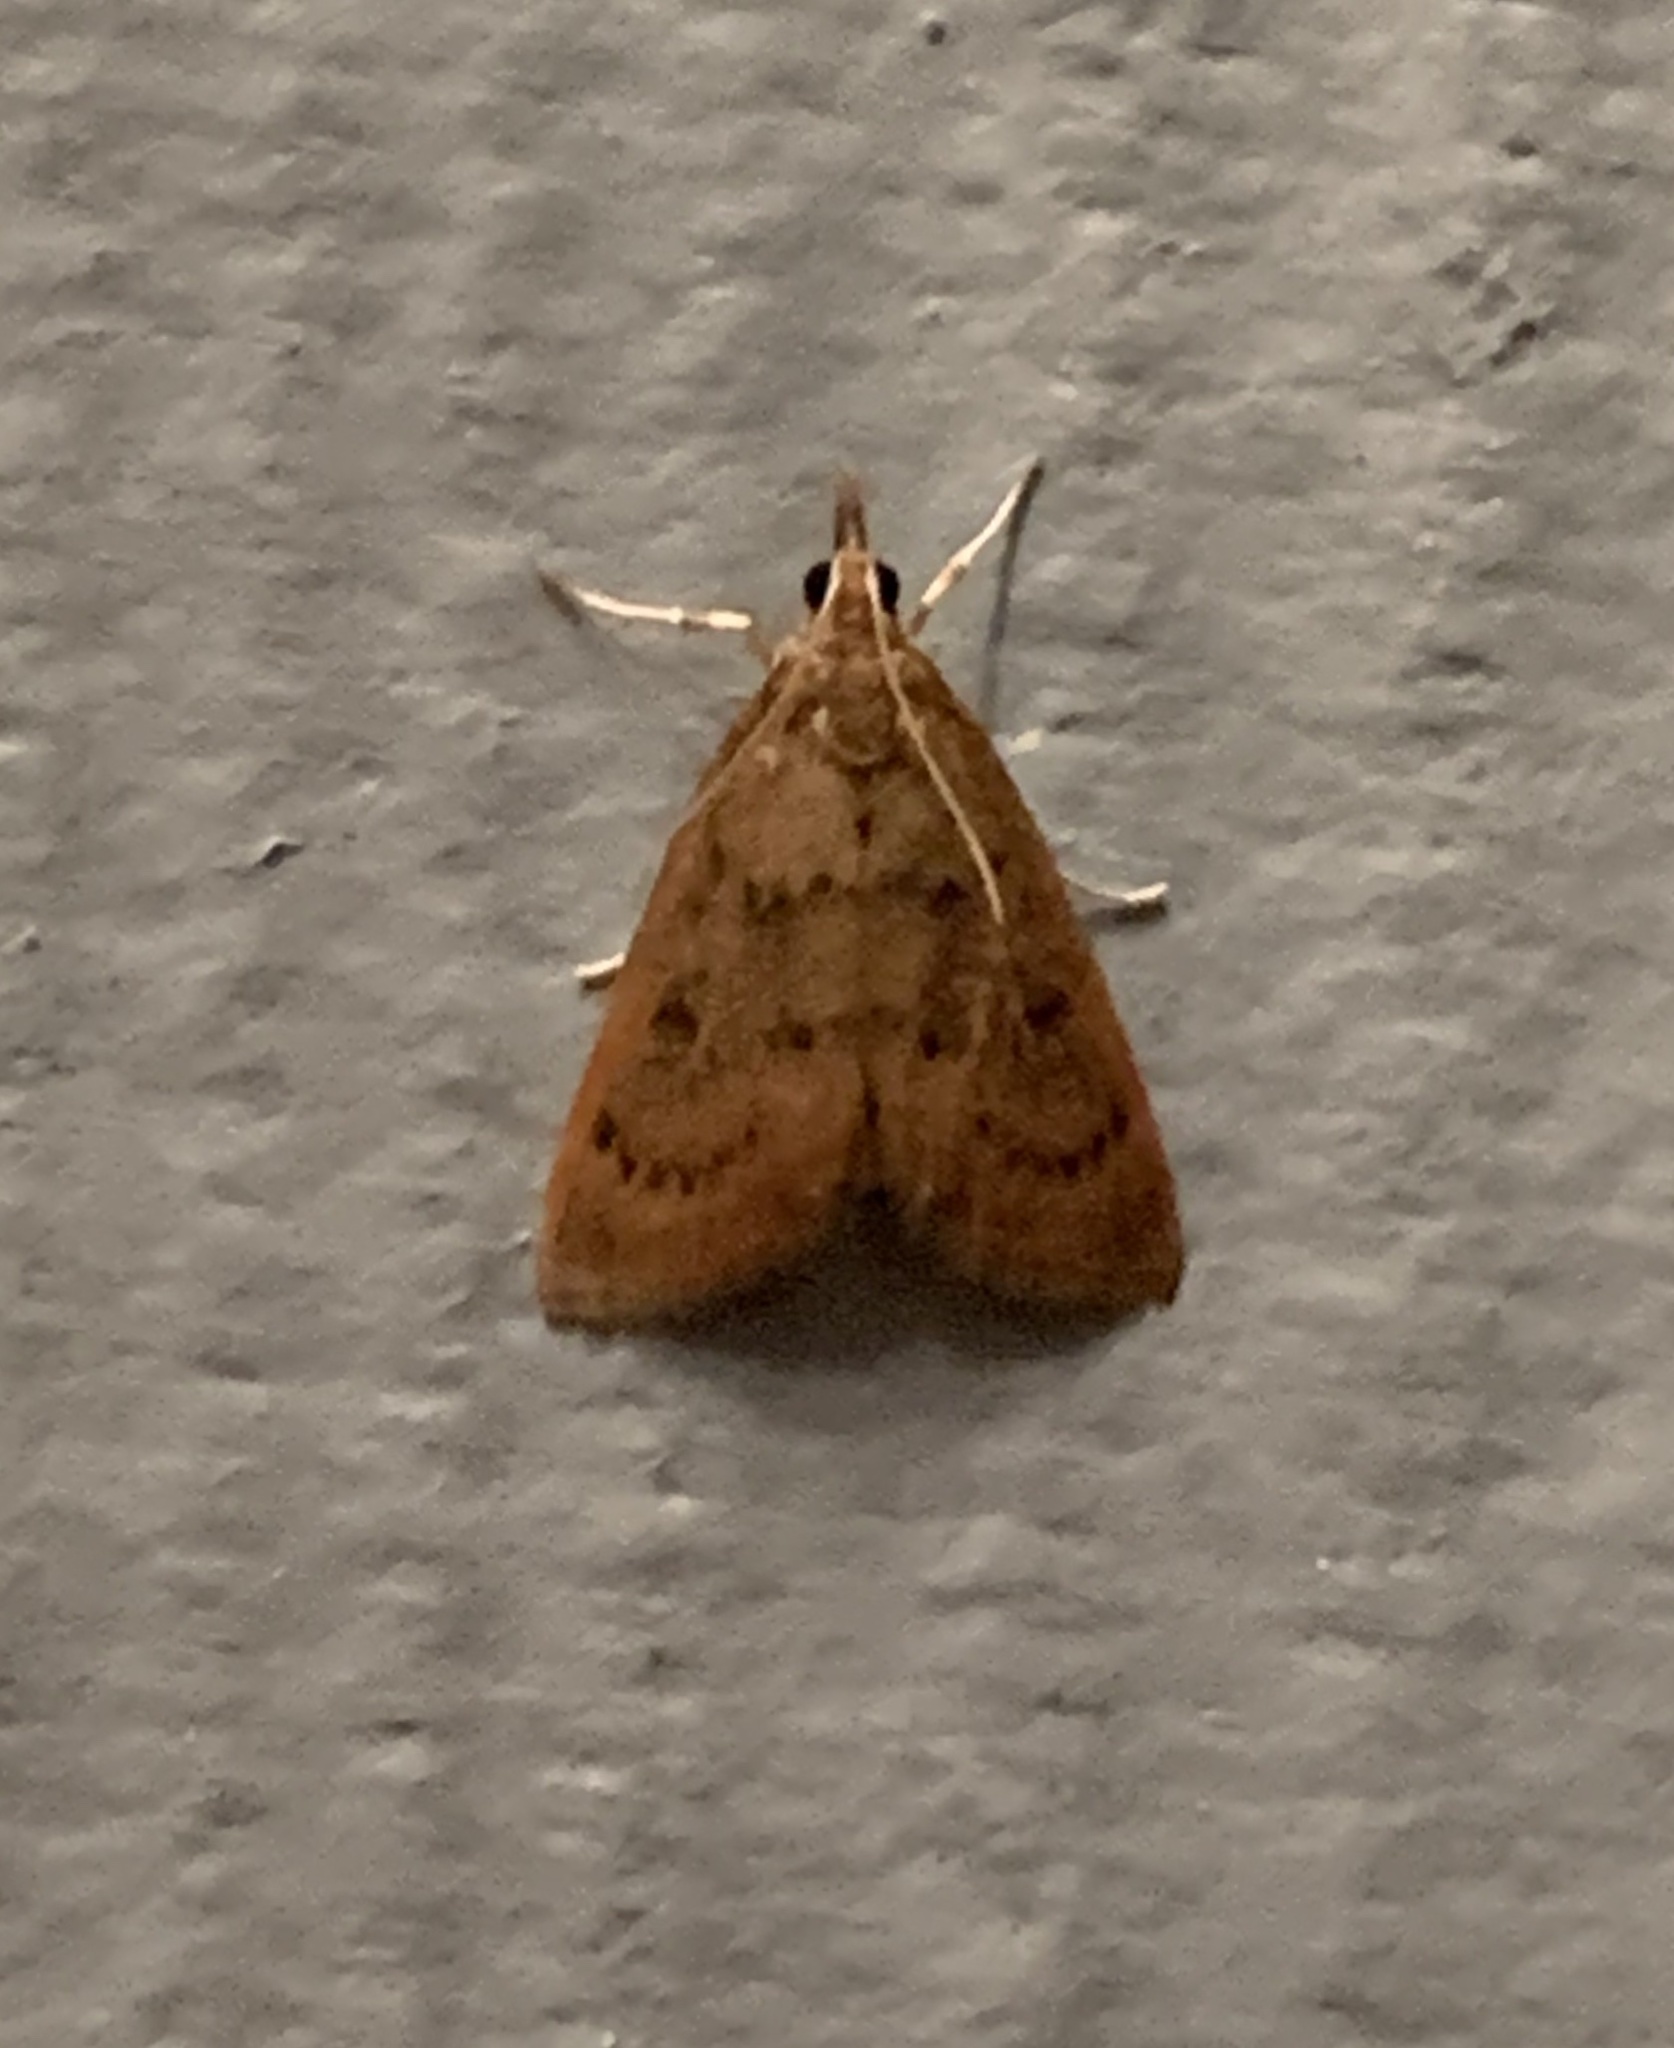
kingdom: Animalia
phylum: Arthropoda
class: Insecta
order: Lepidoptera
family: Crambidae
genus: Oenobotys
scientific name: Oenobotys vinotinctalis
